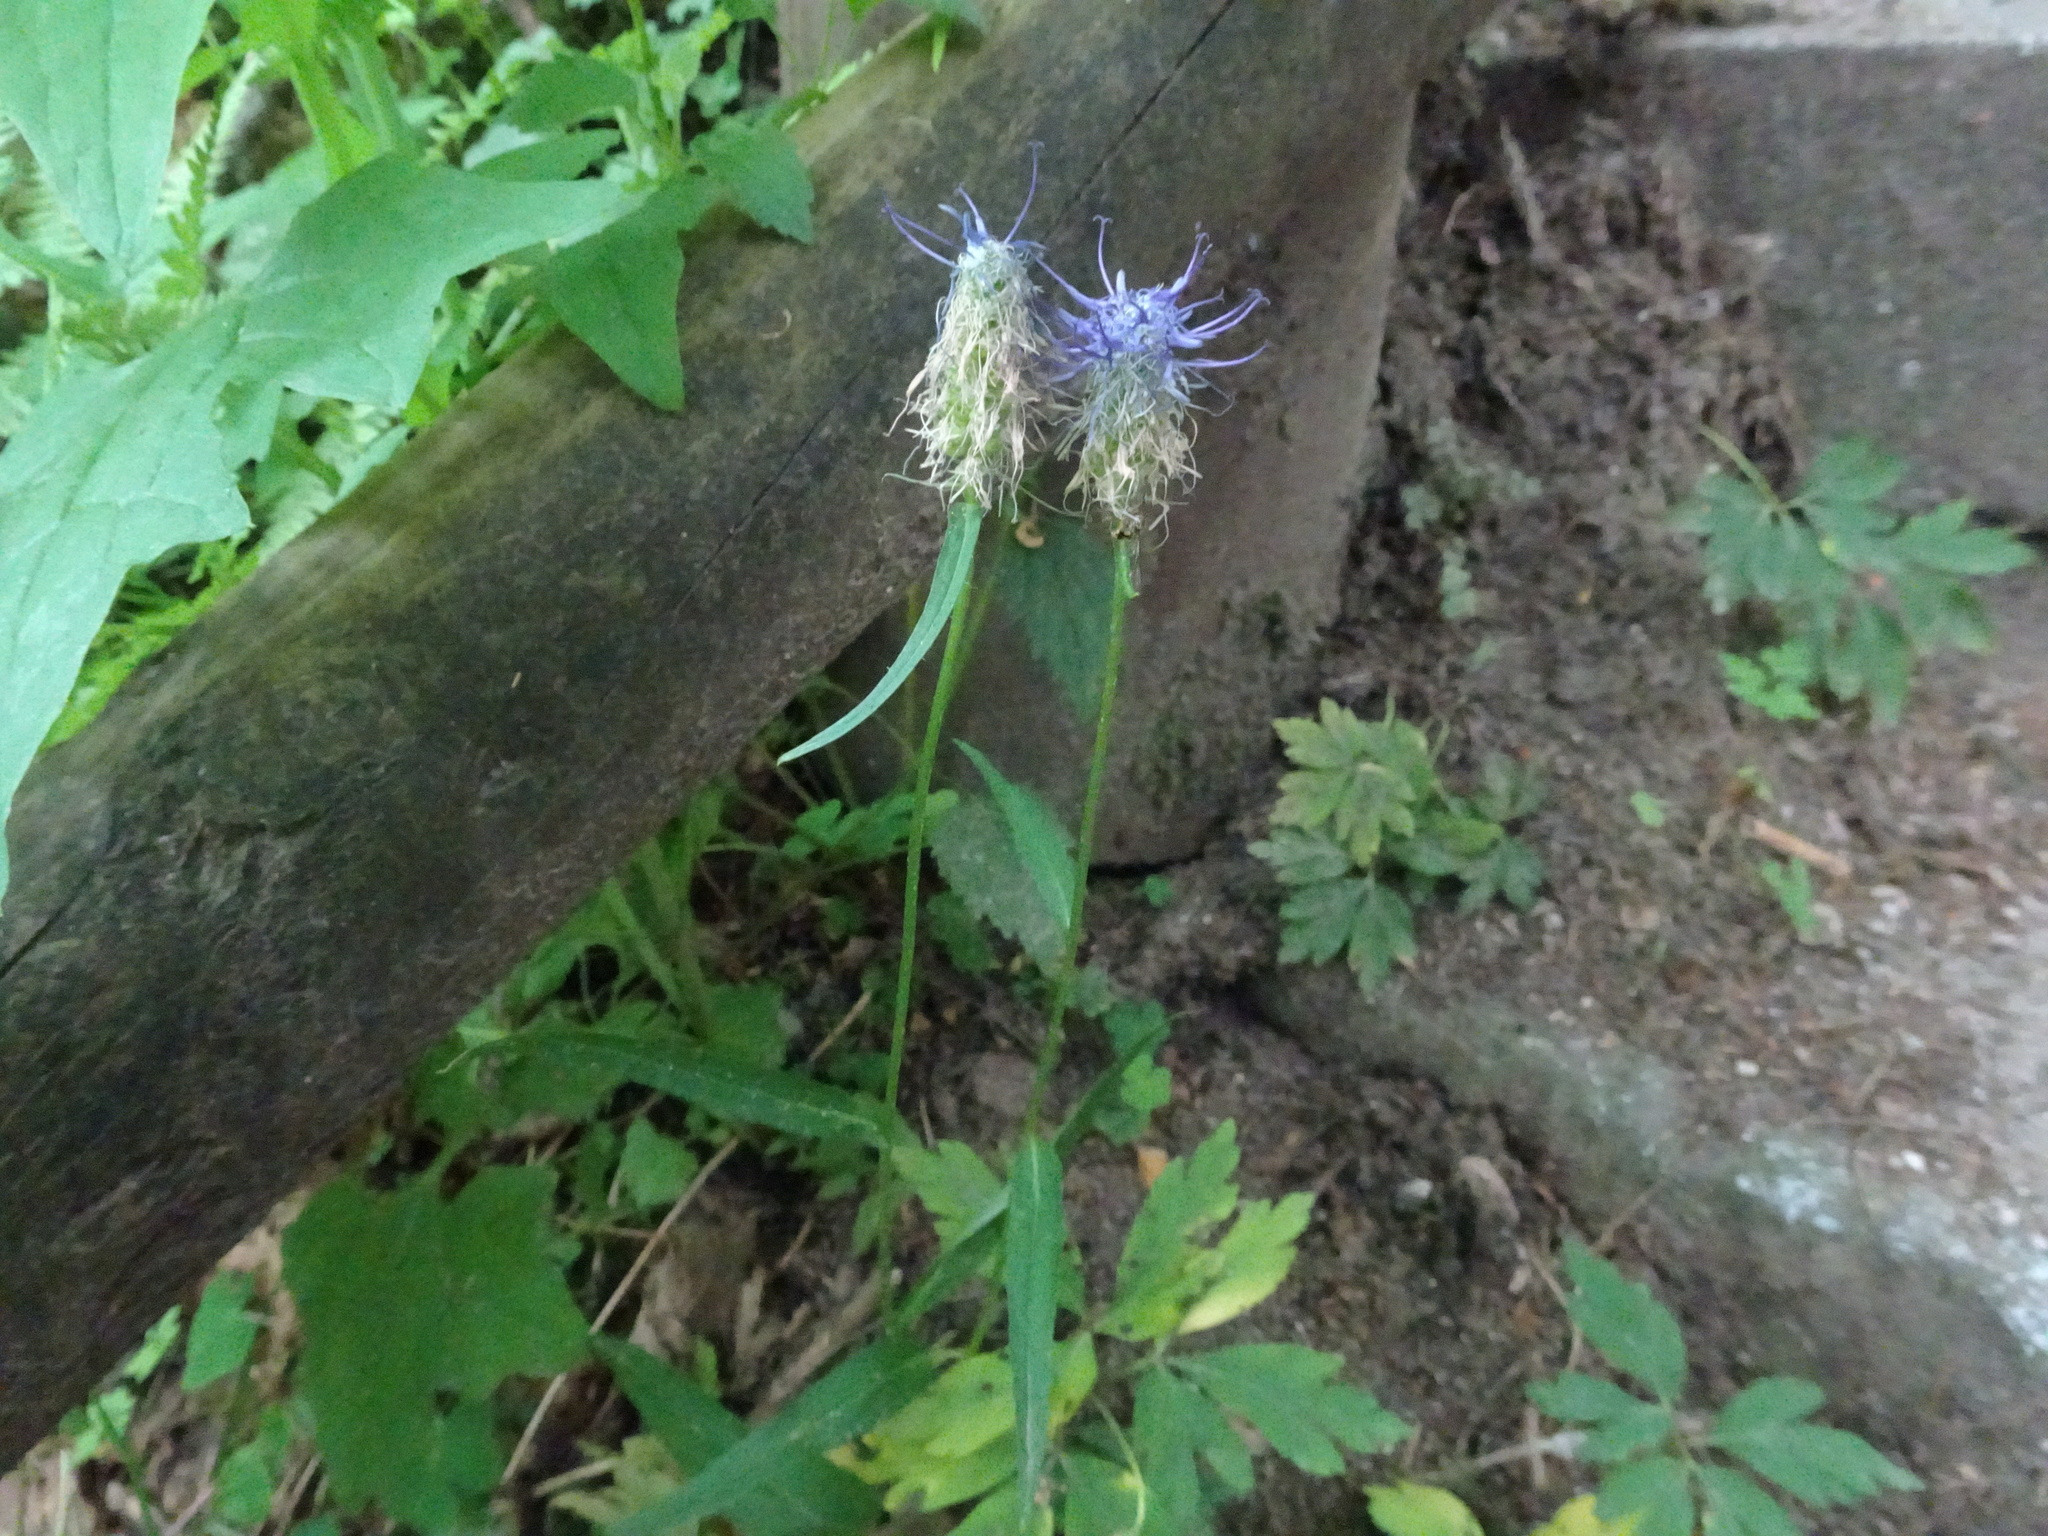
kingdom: Plantae
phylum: Tracheophyta
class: Magnoliopsida
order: Asterales
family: Campanulaceae
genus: Phyteuma
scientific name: Phyteuma spicatum
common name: Spiked rampion
